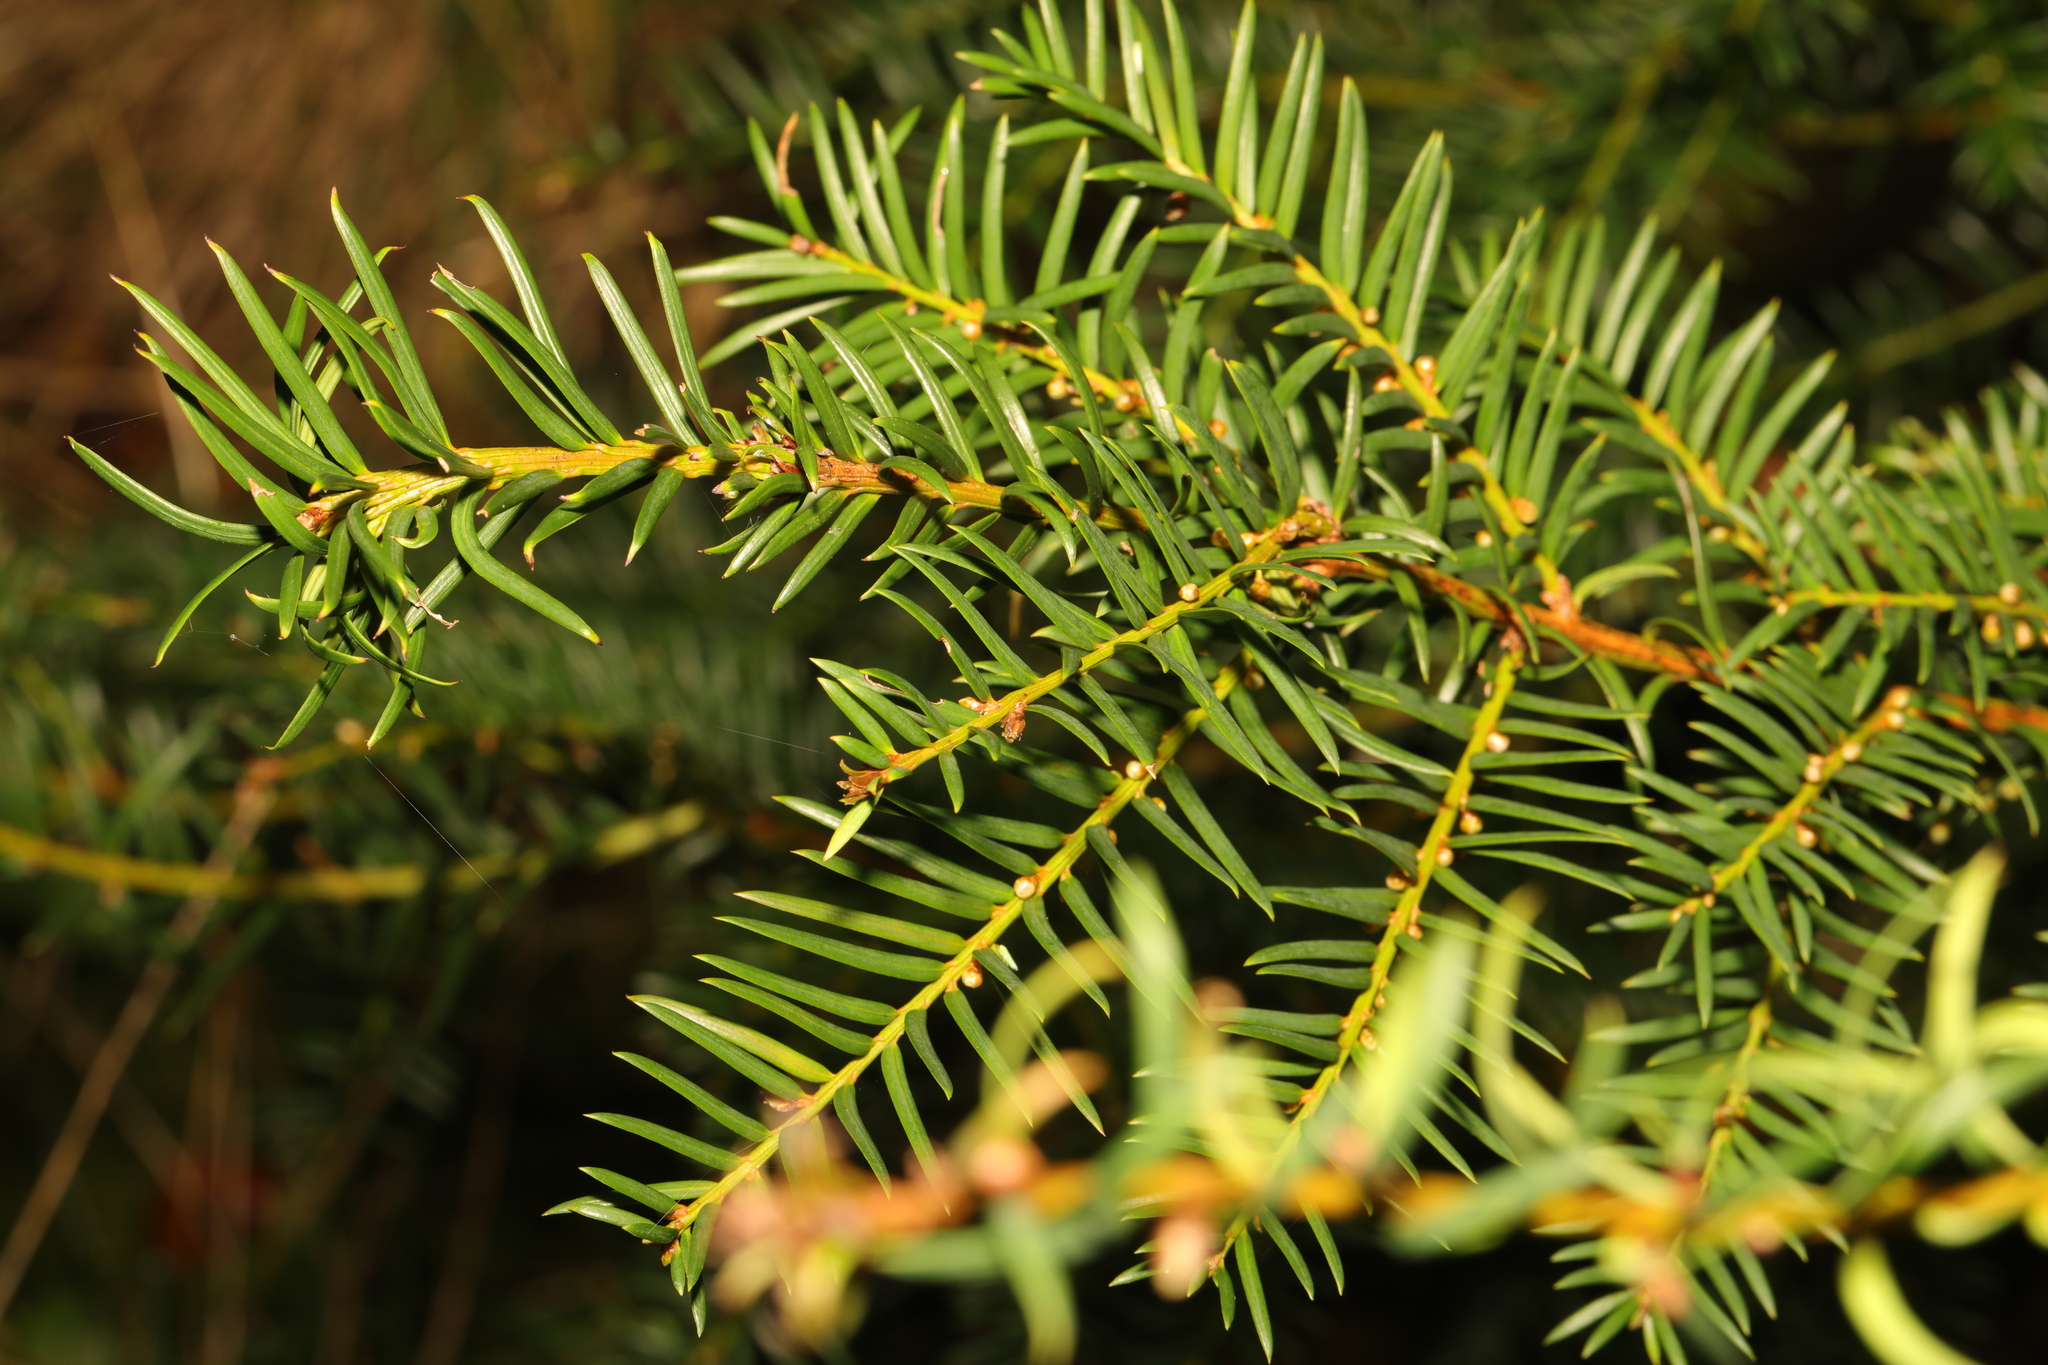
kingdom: Plantae
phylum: Tracheophyta
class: Pinopsida
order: Pinales
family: Taxaceae
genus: Taxus
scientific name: Taxus baccata
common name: Yew
